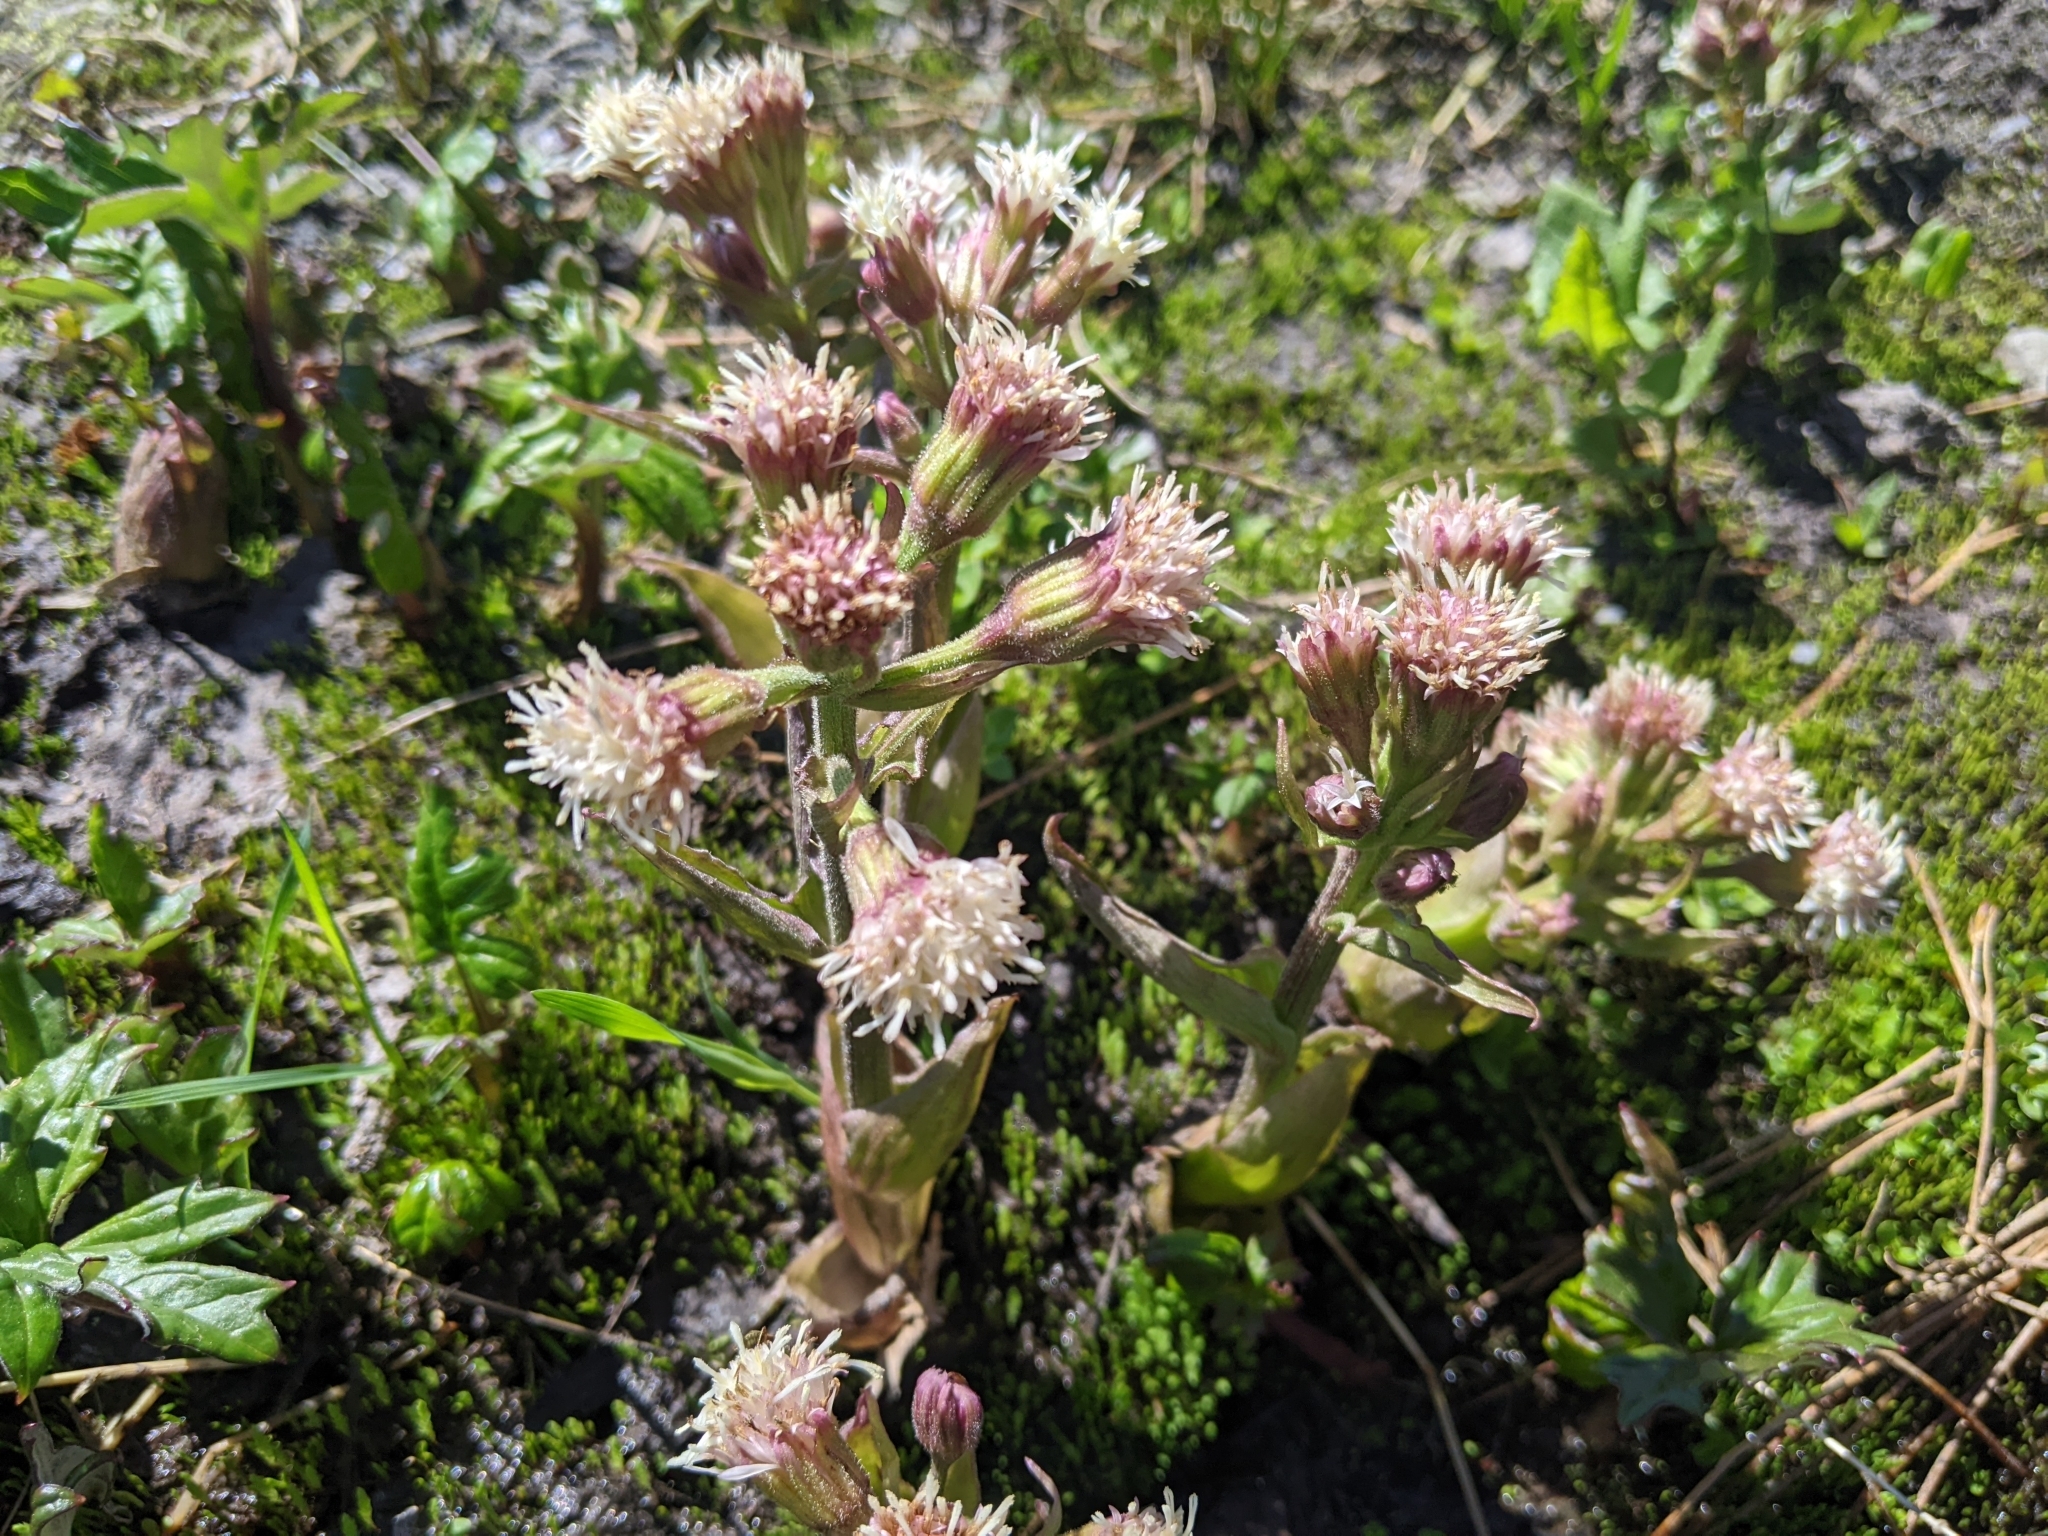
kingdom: Plantae
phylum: Tracheophyta
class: Magnoliopsida
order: Asterales
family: Asteraceae
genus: Petasites
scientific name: Petasites frigidus
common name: Arctic butterbur
